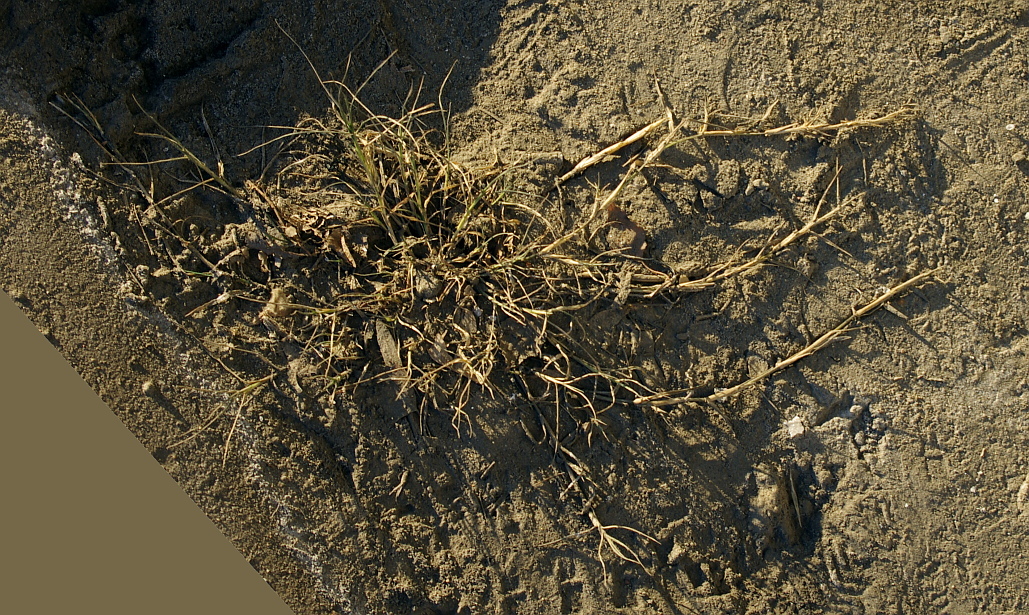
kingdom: Plantae
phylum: Tracheophyta
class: Liliopsida
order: Poales
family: Poaceae
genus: Cynodon
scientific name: Cynodon dactylon
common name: Bermuda grass
